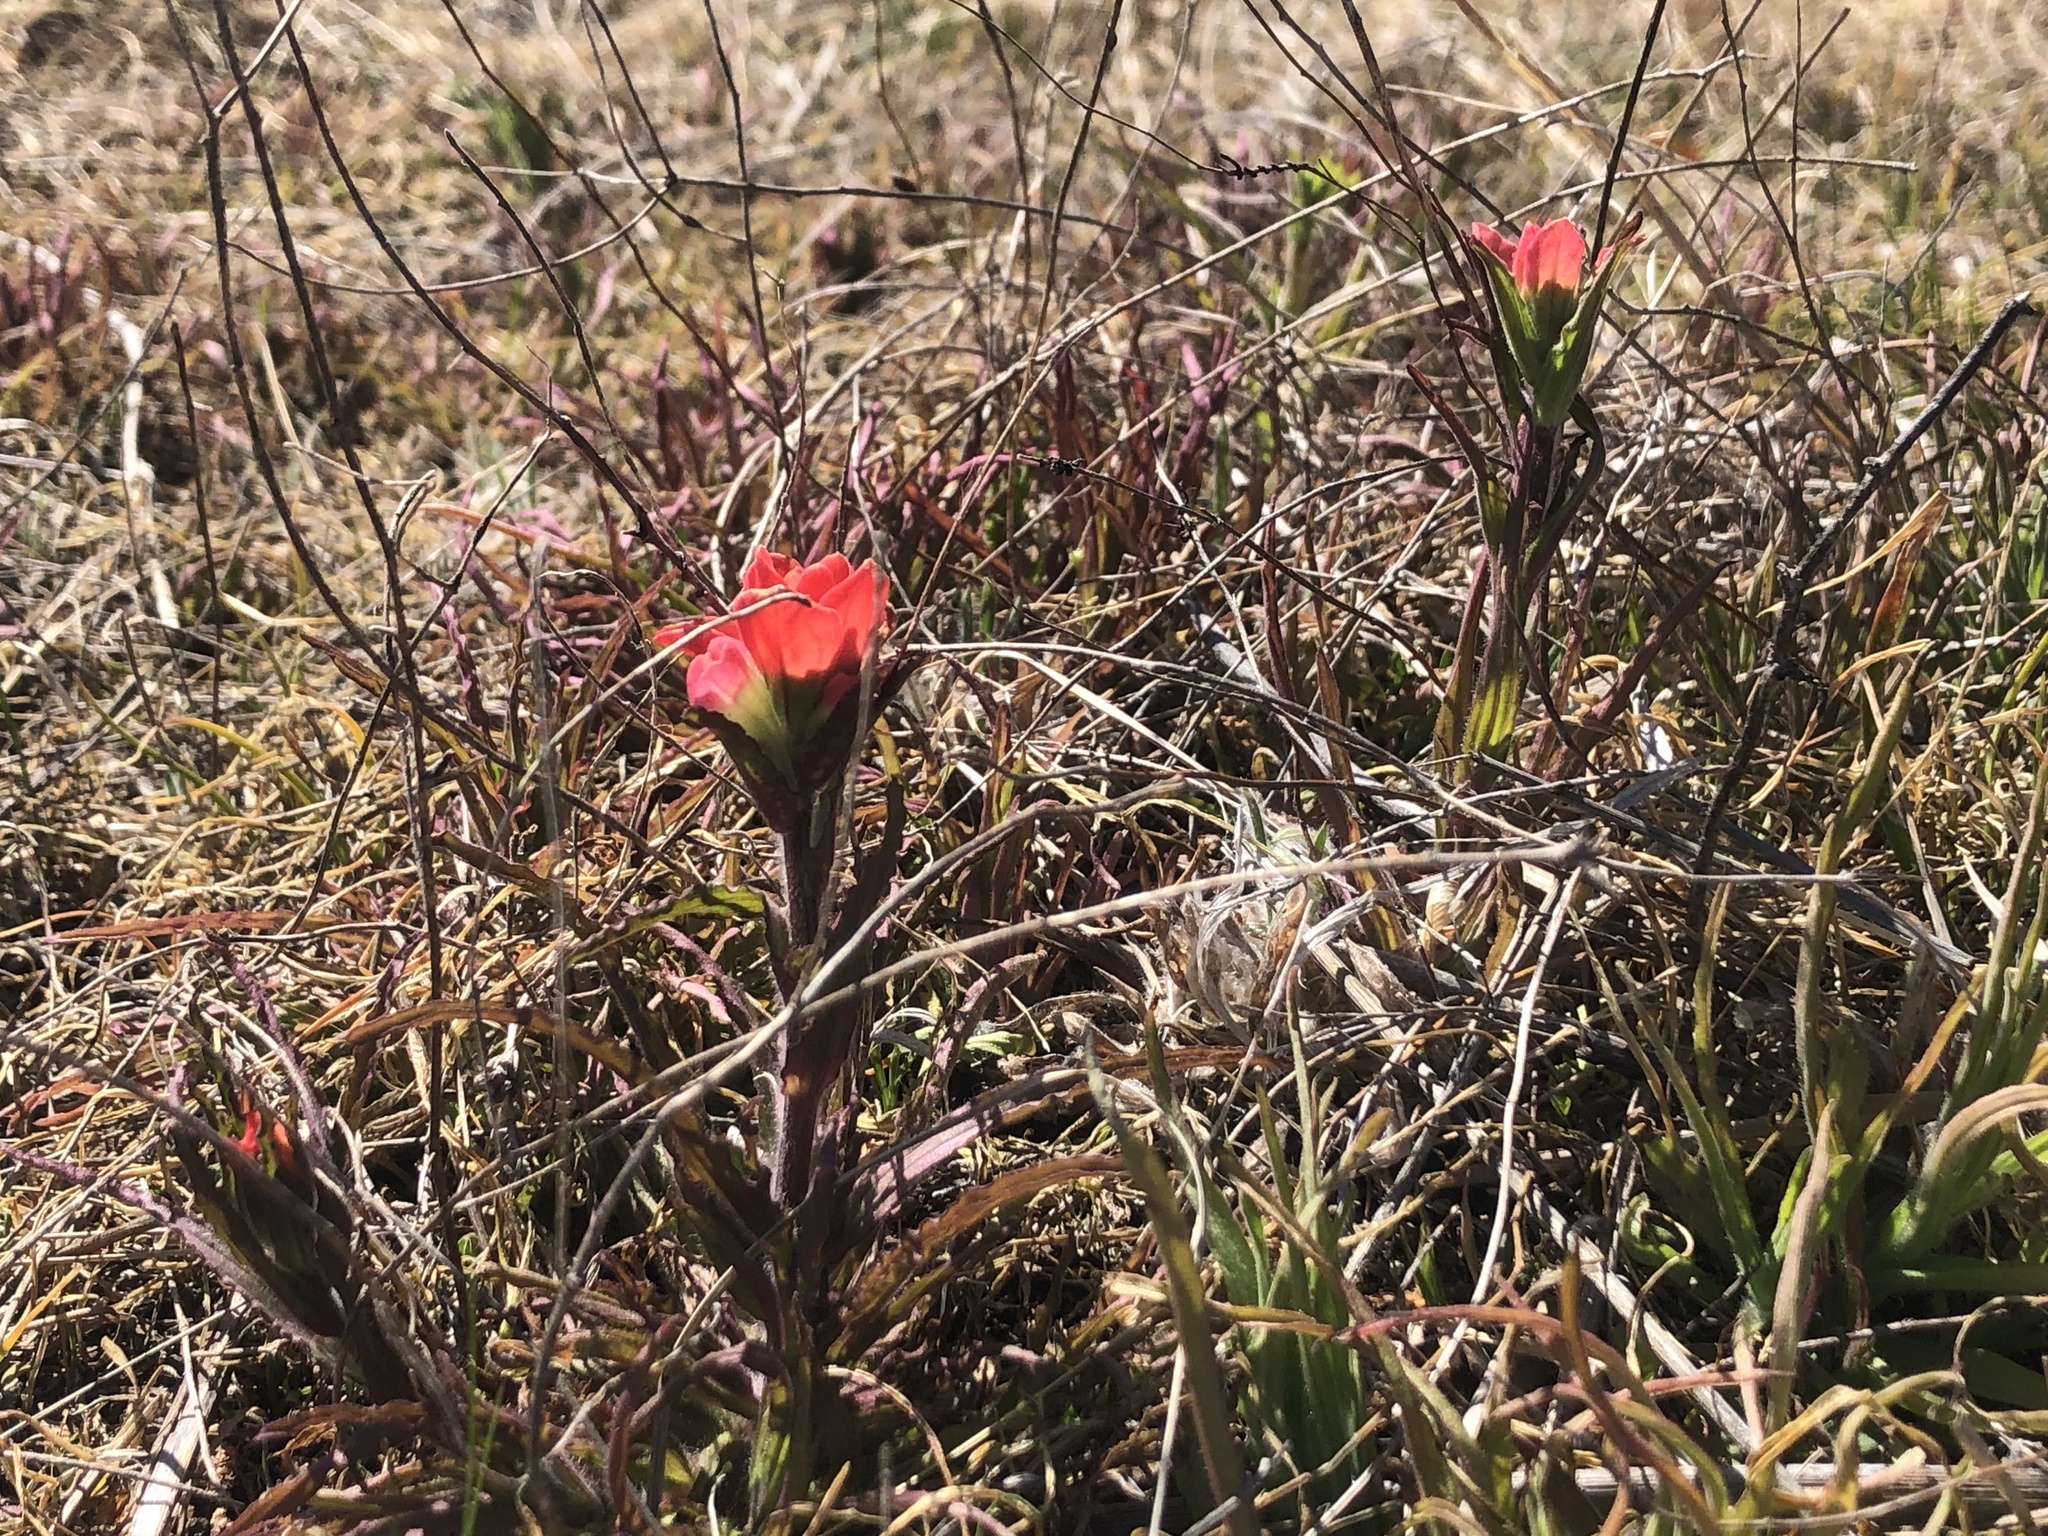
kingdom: Plantae
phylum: Tracheophyta
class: Magnoliopsida
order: Lamiales
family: Orobanchaceae
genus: Castilleja
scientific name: Castilleja indivisa
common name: Texas paintbrush
